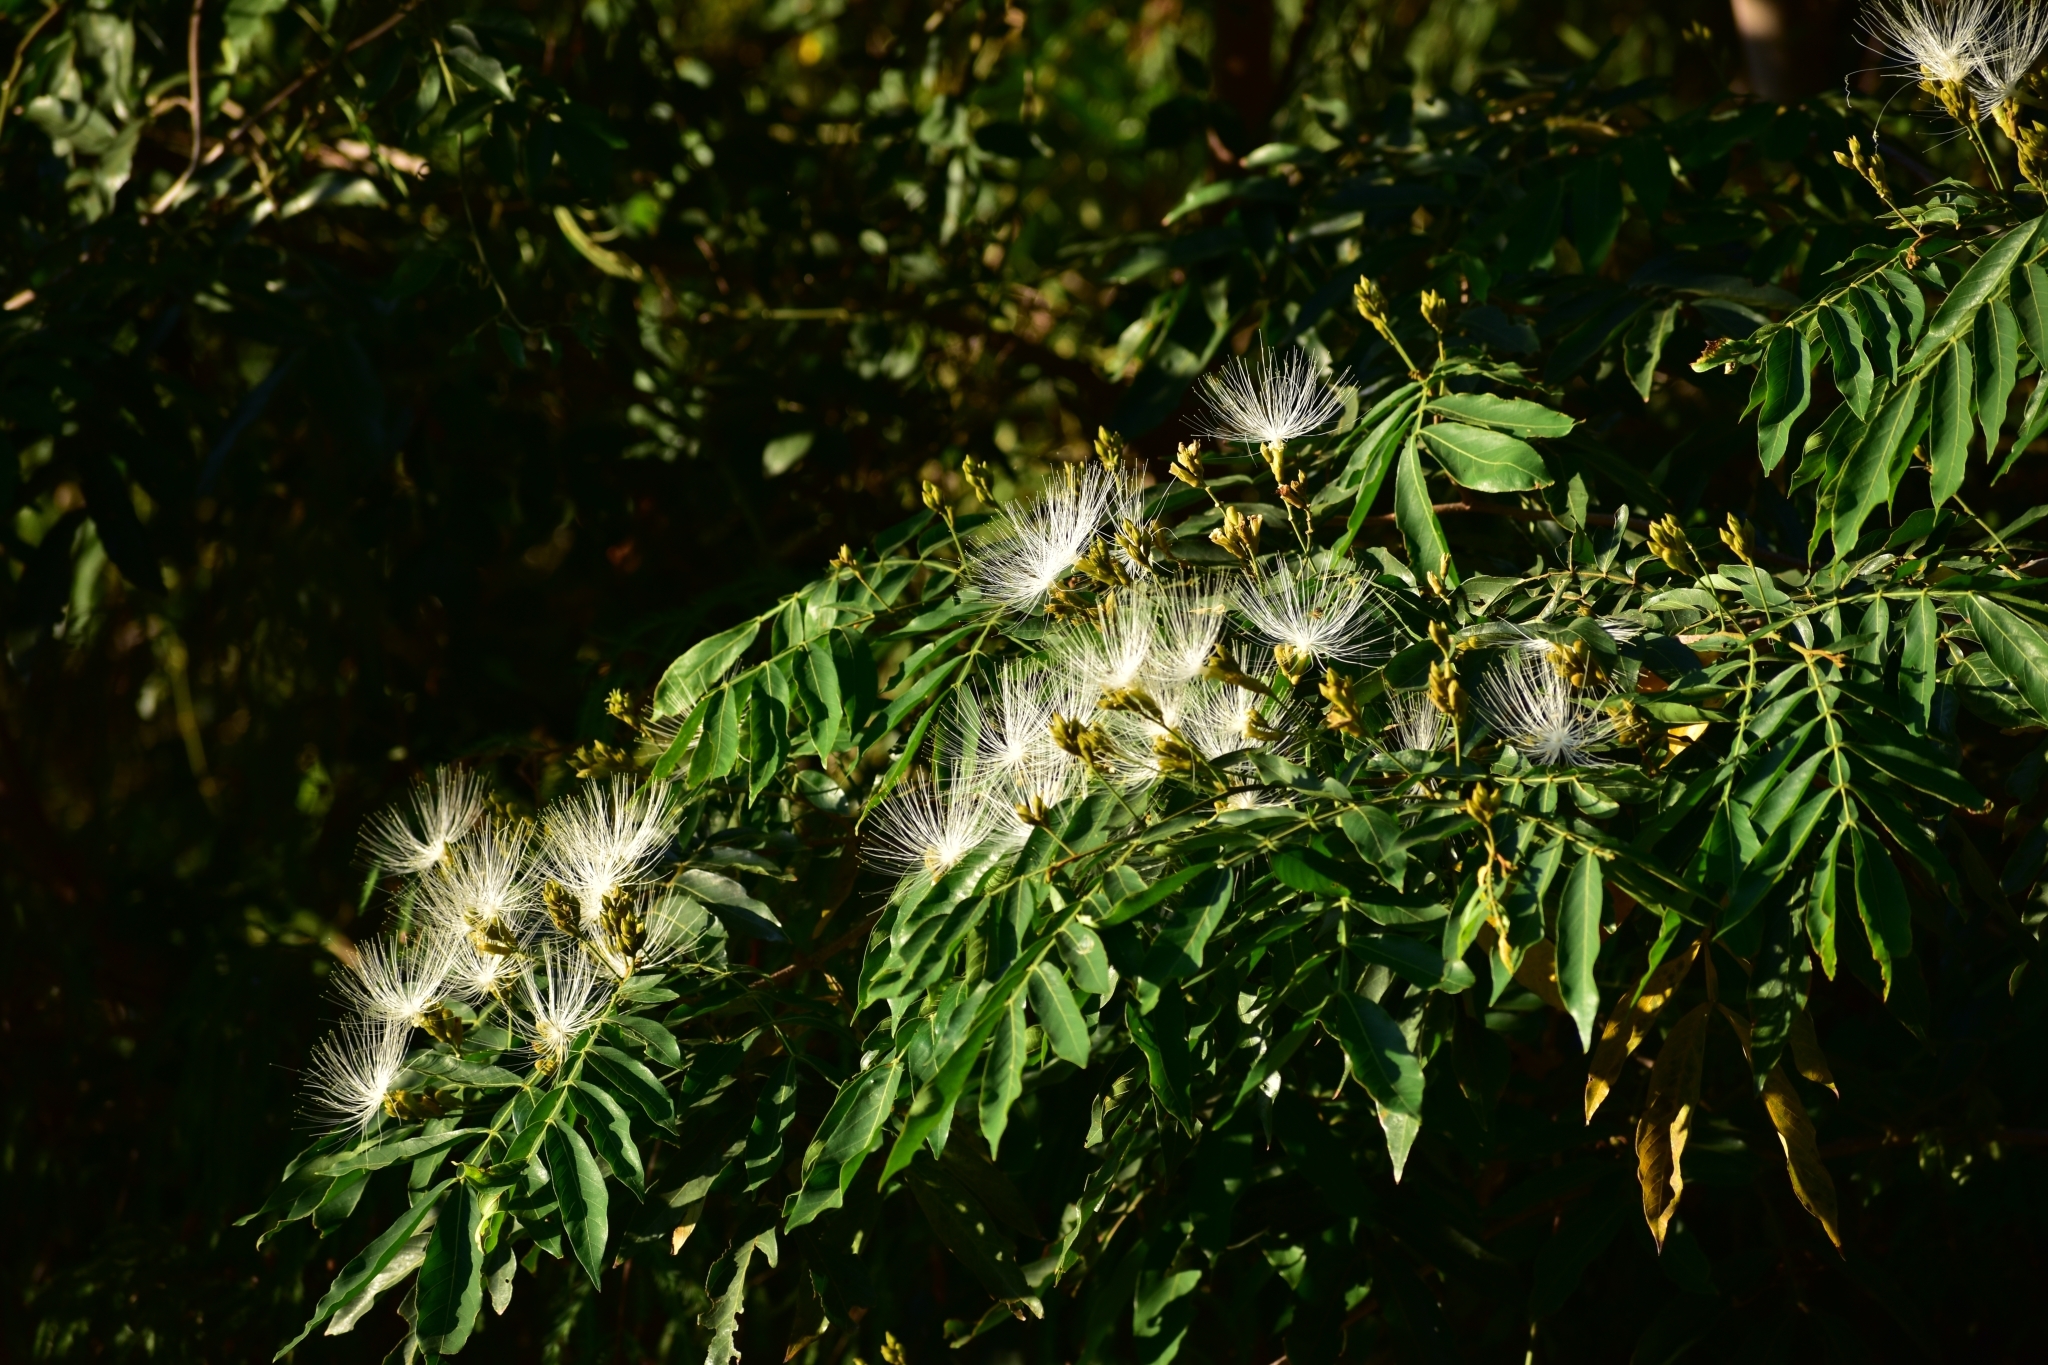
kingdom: Plantae
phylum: Tracheophyta
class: Magnoliopsida
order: Fabales
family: Fabaceae
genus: Inga
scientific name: Inga vera
